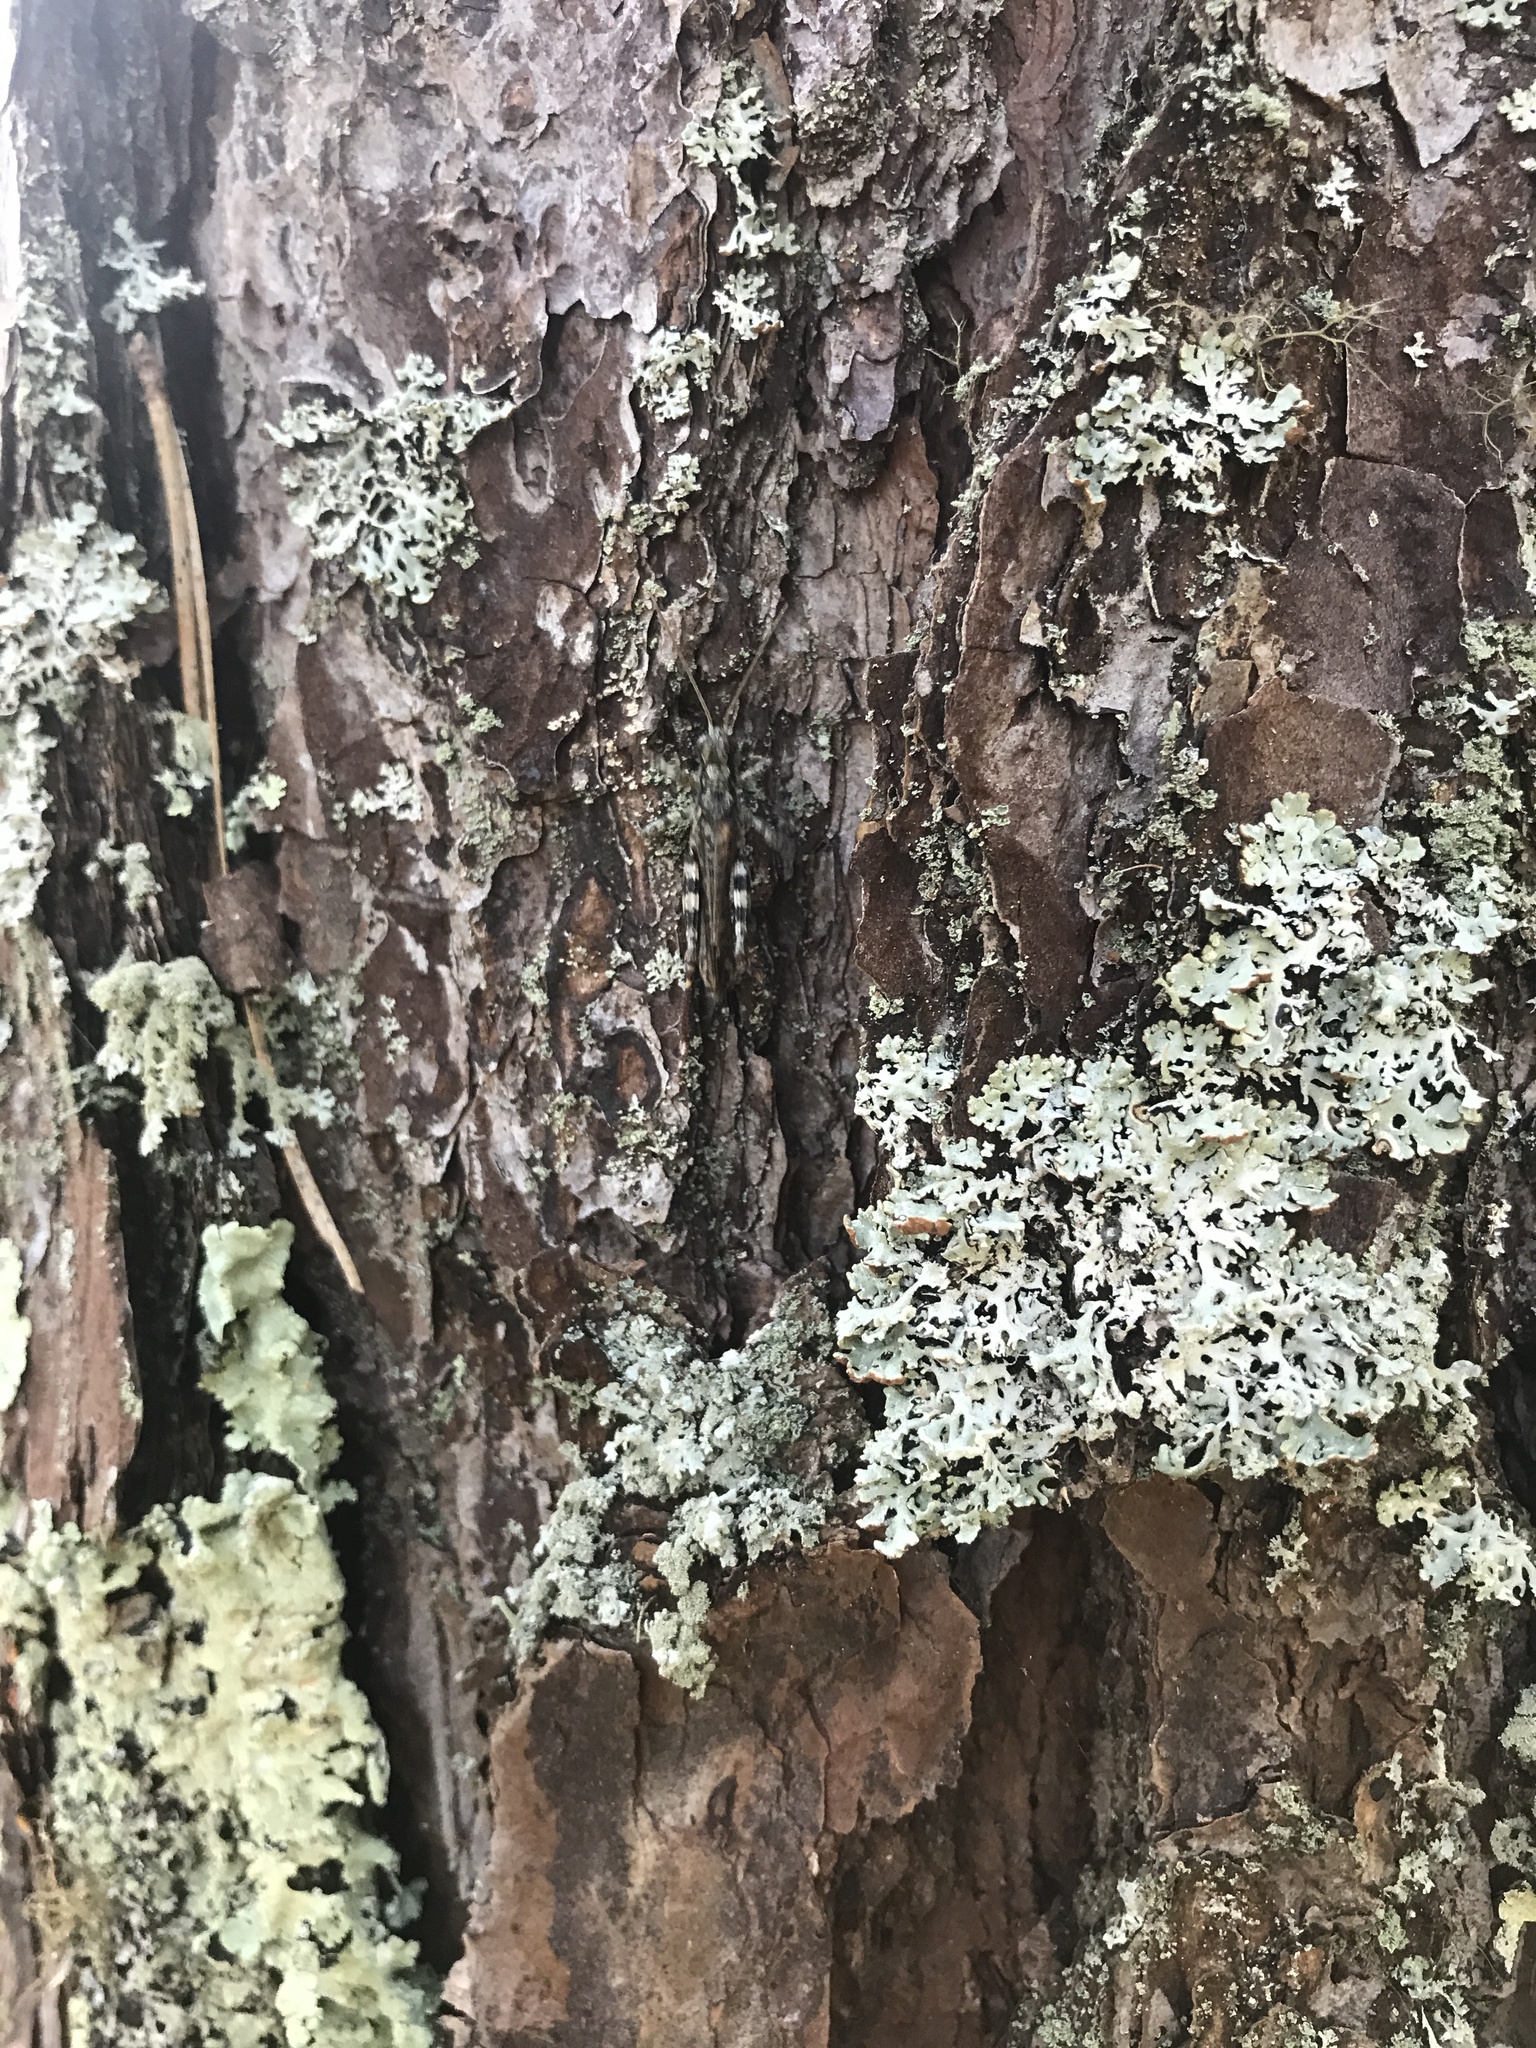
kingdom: Animalia
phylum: Arthropoda
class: Insecta
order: Orthoptera
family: Acrididae
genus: Melanoplus
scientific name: Melanoplus punctulatus
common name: Pine-tree spur-throat grasshopper
